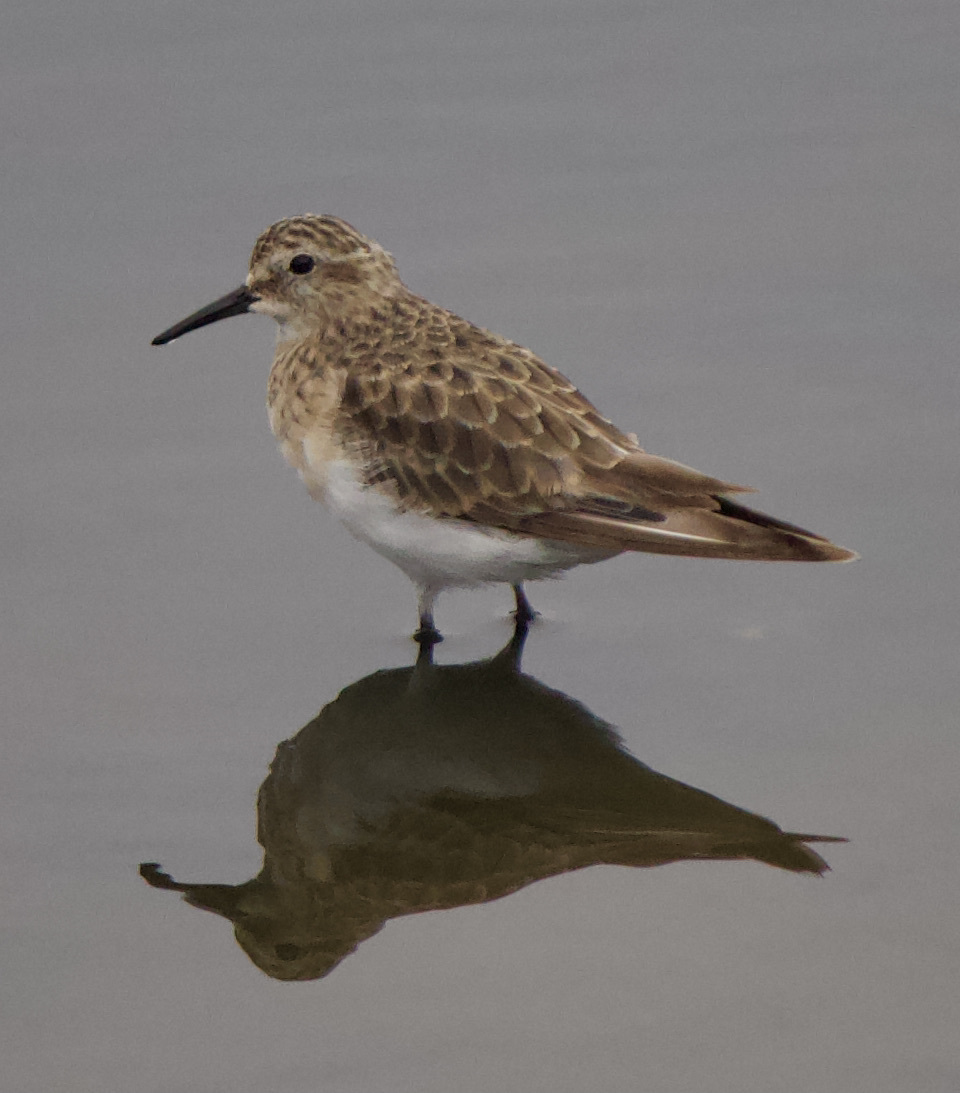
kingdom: Animalia
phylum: Chordata
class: Aves
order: Charadriiformes
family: Scolopacidae
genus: Calidris
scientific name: Calidris bairdii
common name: Baird's sandpiper
